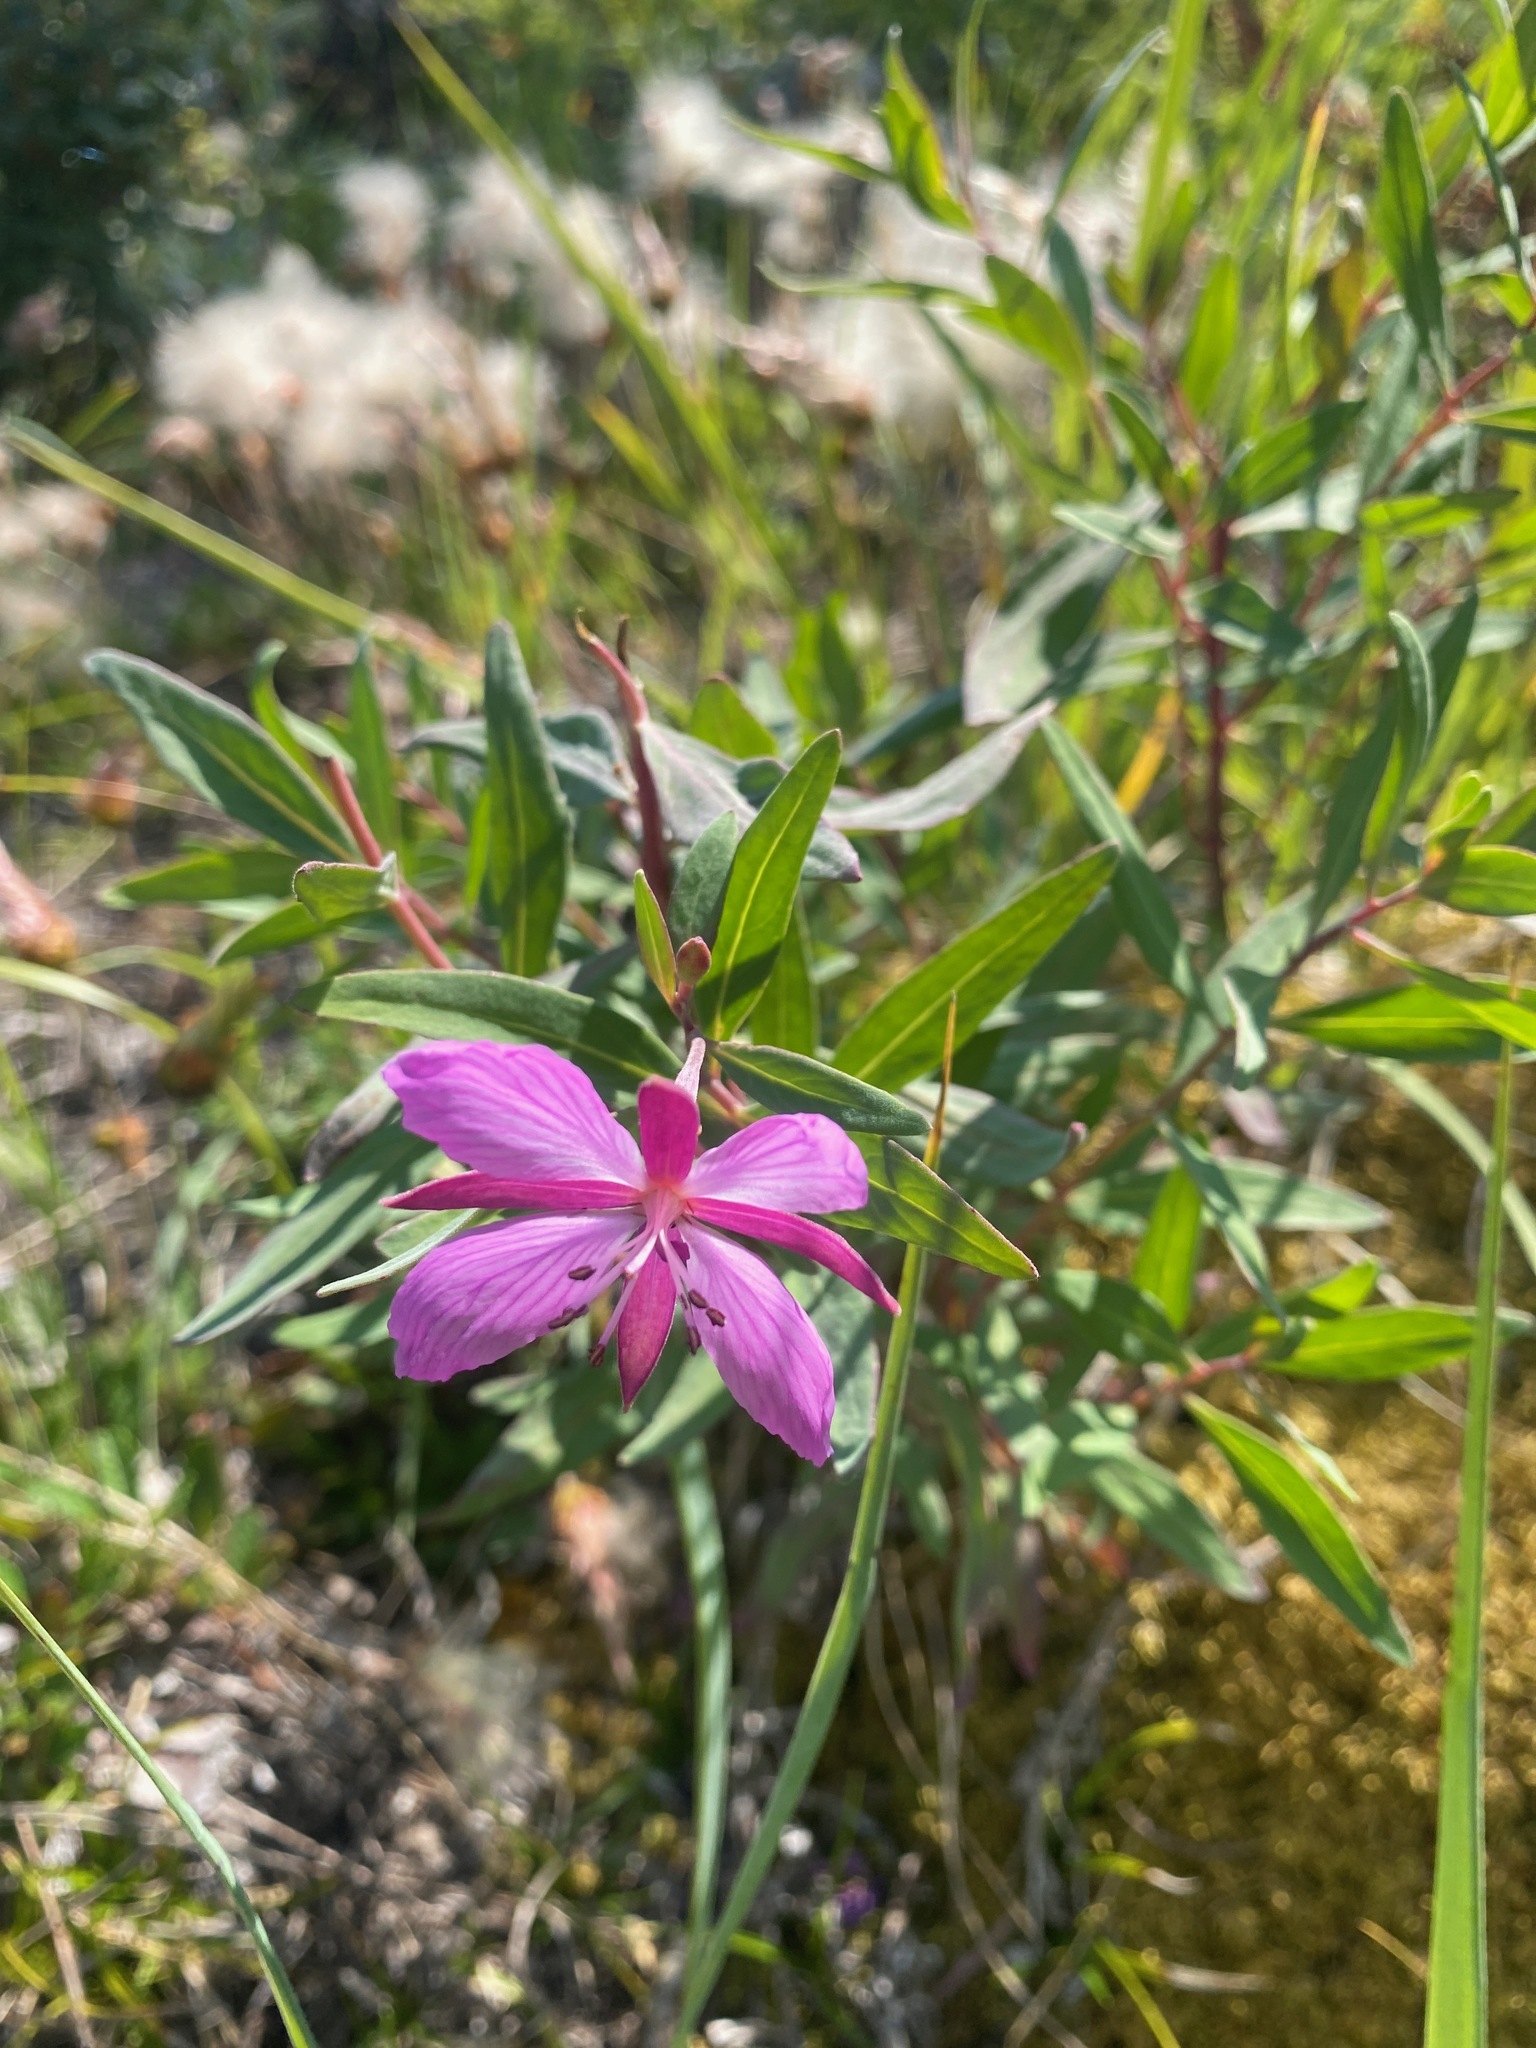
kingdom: Plantae
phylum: Tracheophyta
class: Magnoliopsida
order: Myrtales
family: Onagraceae
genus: Chamaenerion
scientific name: Chamaenerion latifolium
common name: Dwarf fireweed
